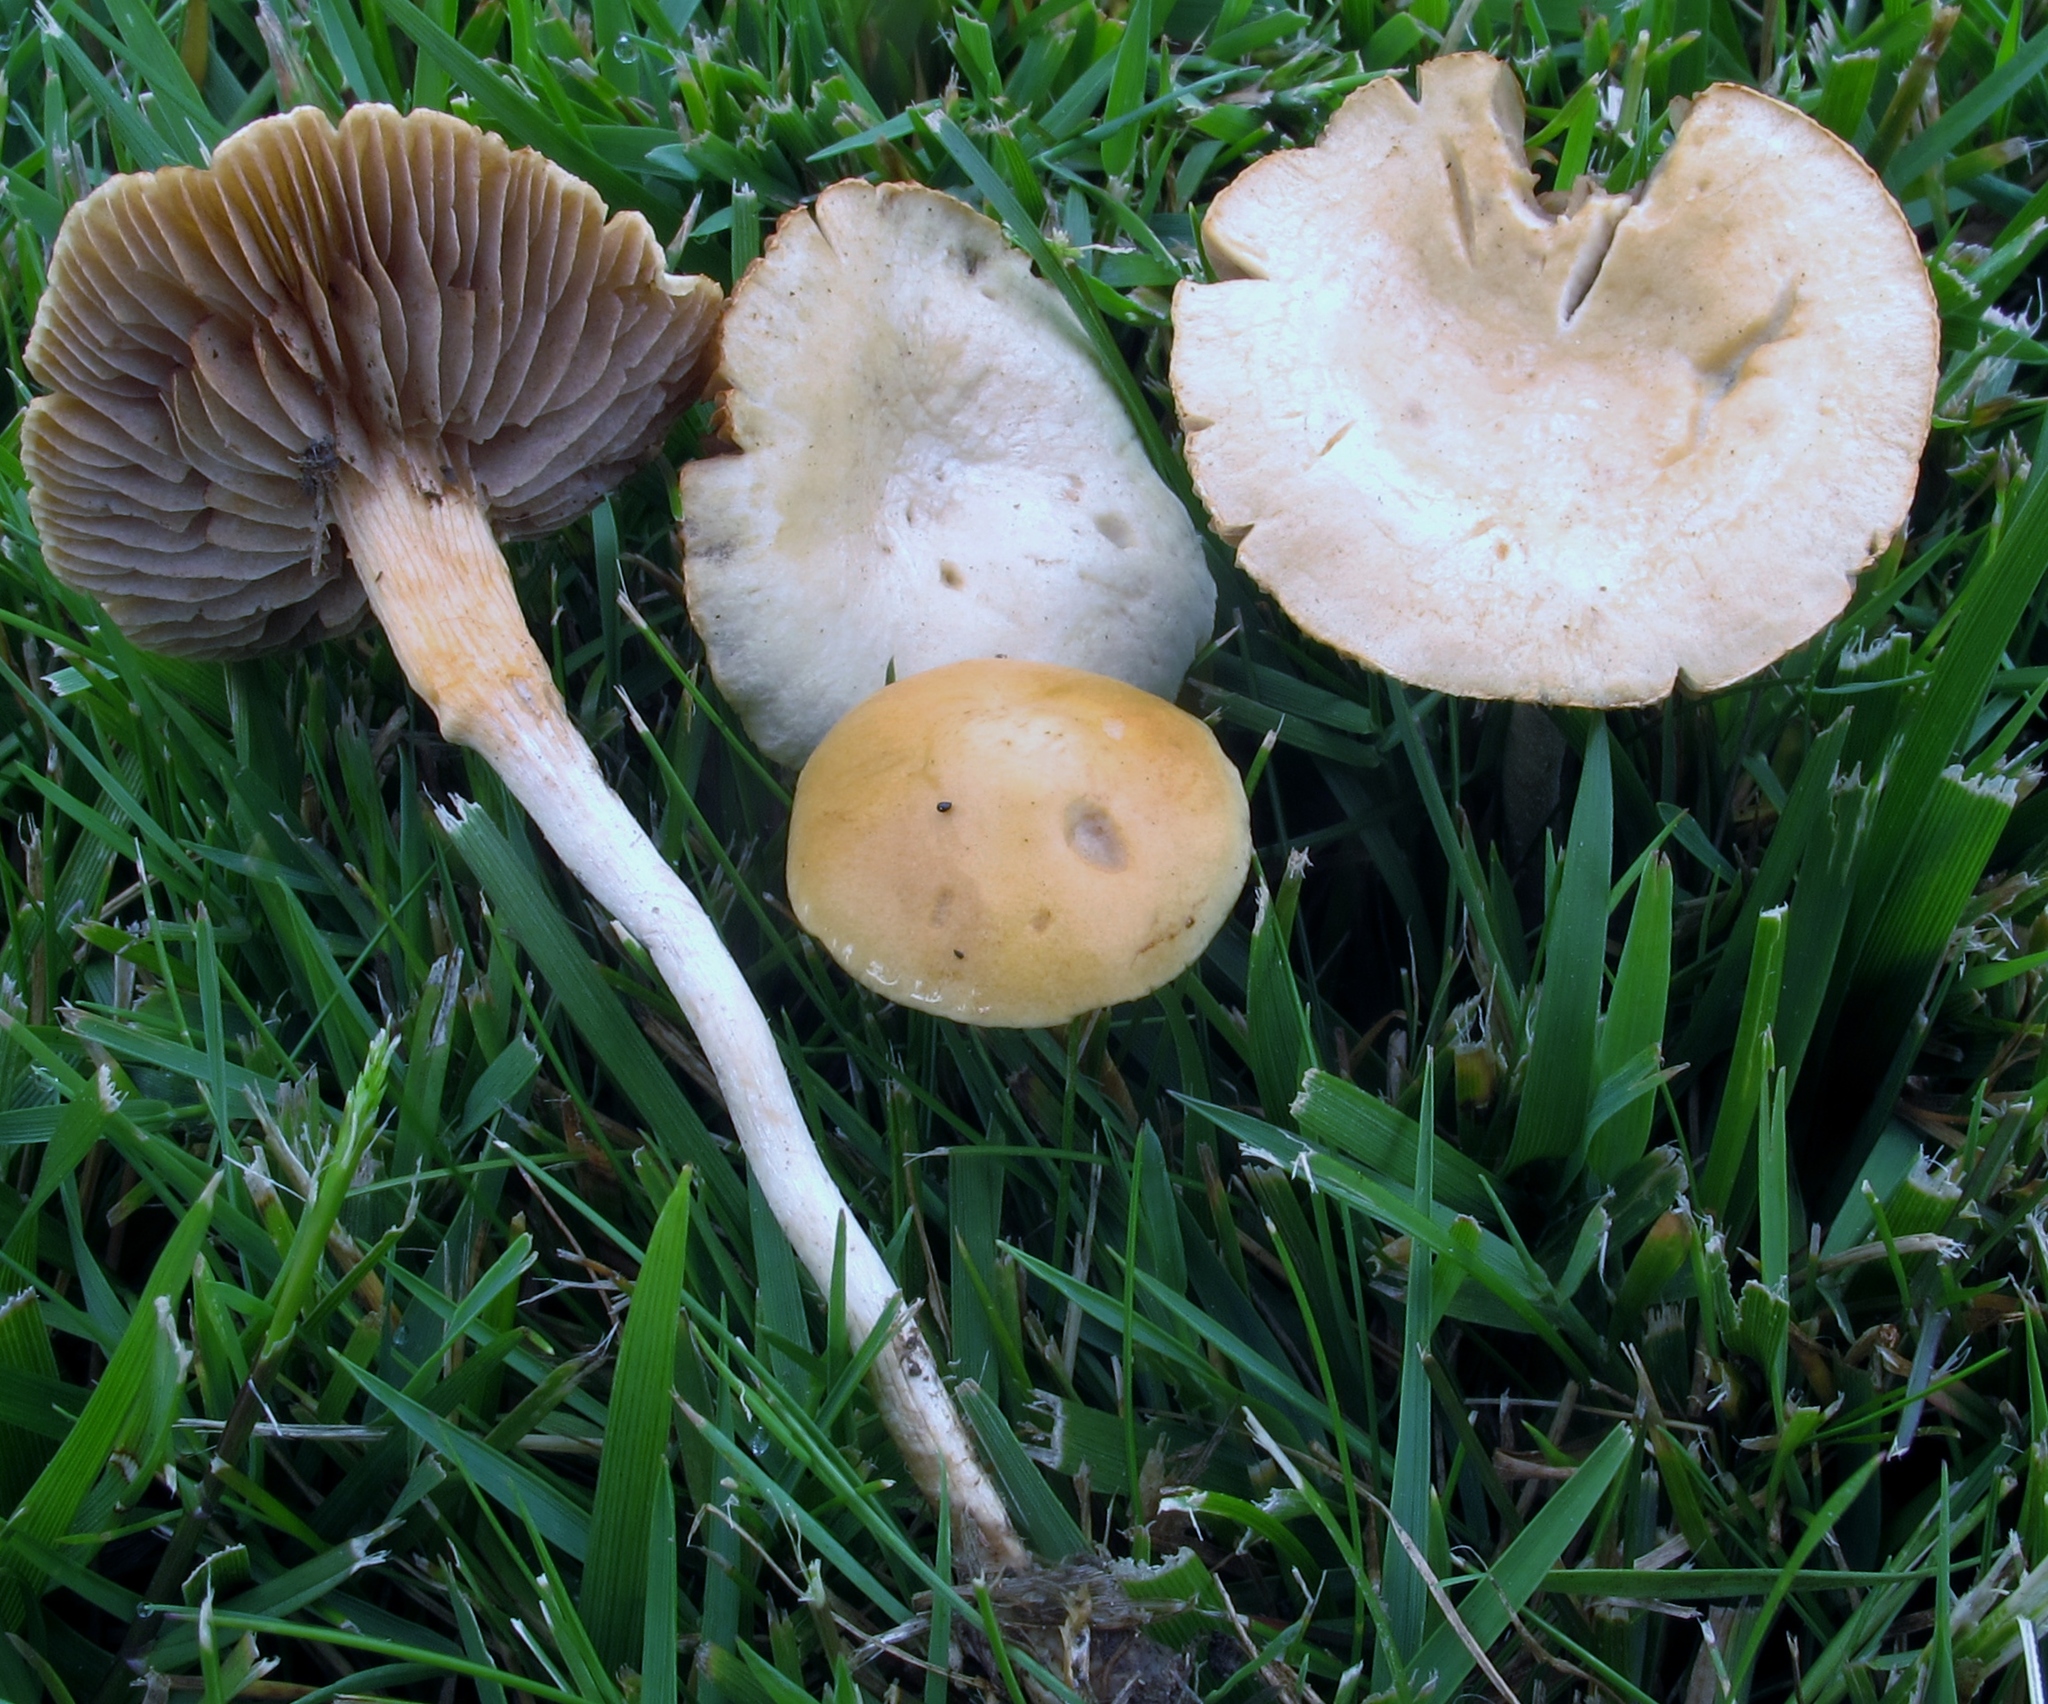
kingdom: Fungi
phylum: Basidiomycota
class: Agaricomycetes
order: Agaricales
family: Strophariaceae
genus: Agrocybe
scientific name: Agrocybe pediades
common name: Common fieldcap
